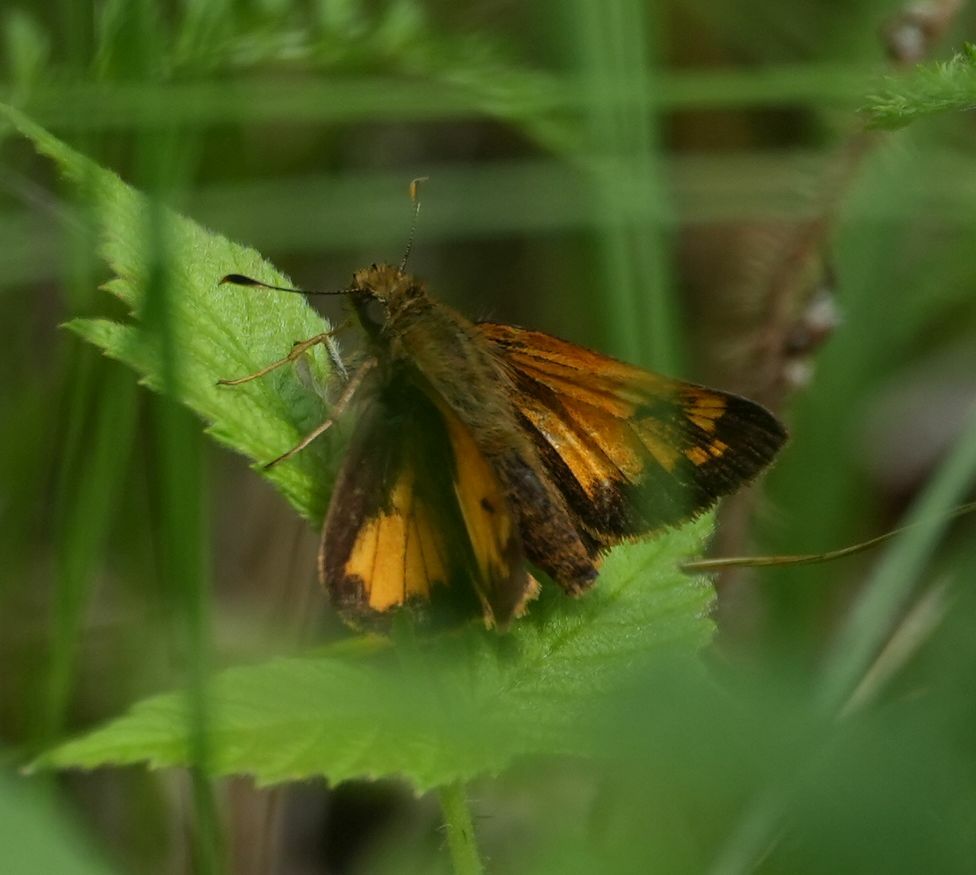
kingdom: Animalia
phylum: Arthropoda
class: Insecta
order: Lepidoptera
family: Hesperiidae
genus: Lon
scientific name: Lon hobomok
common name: Hobomok skipper
